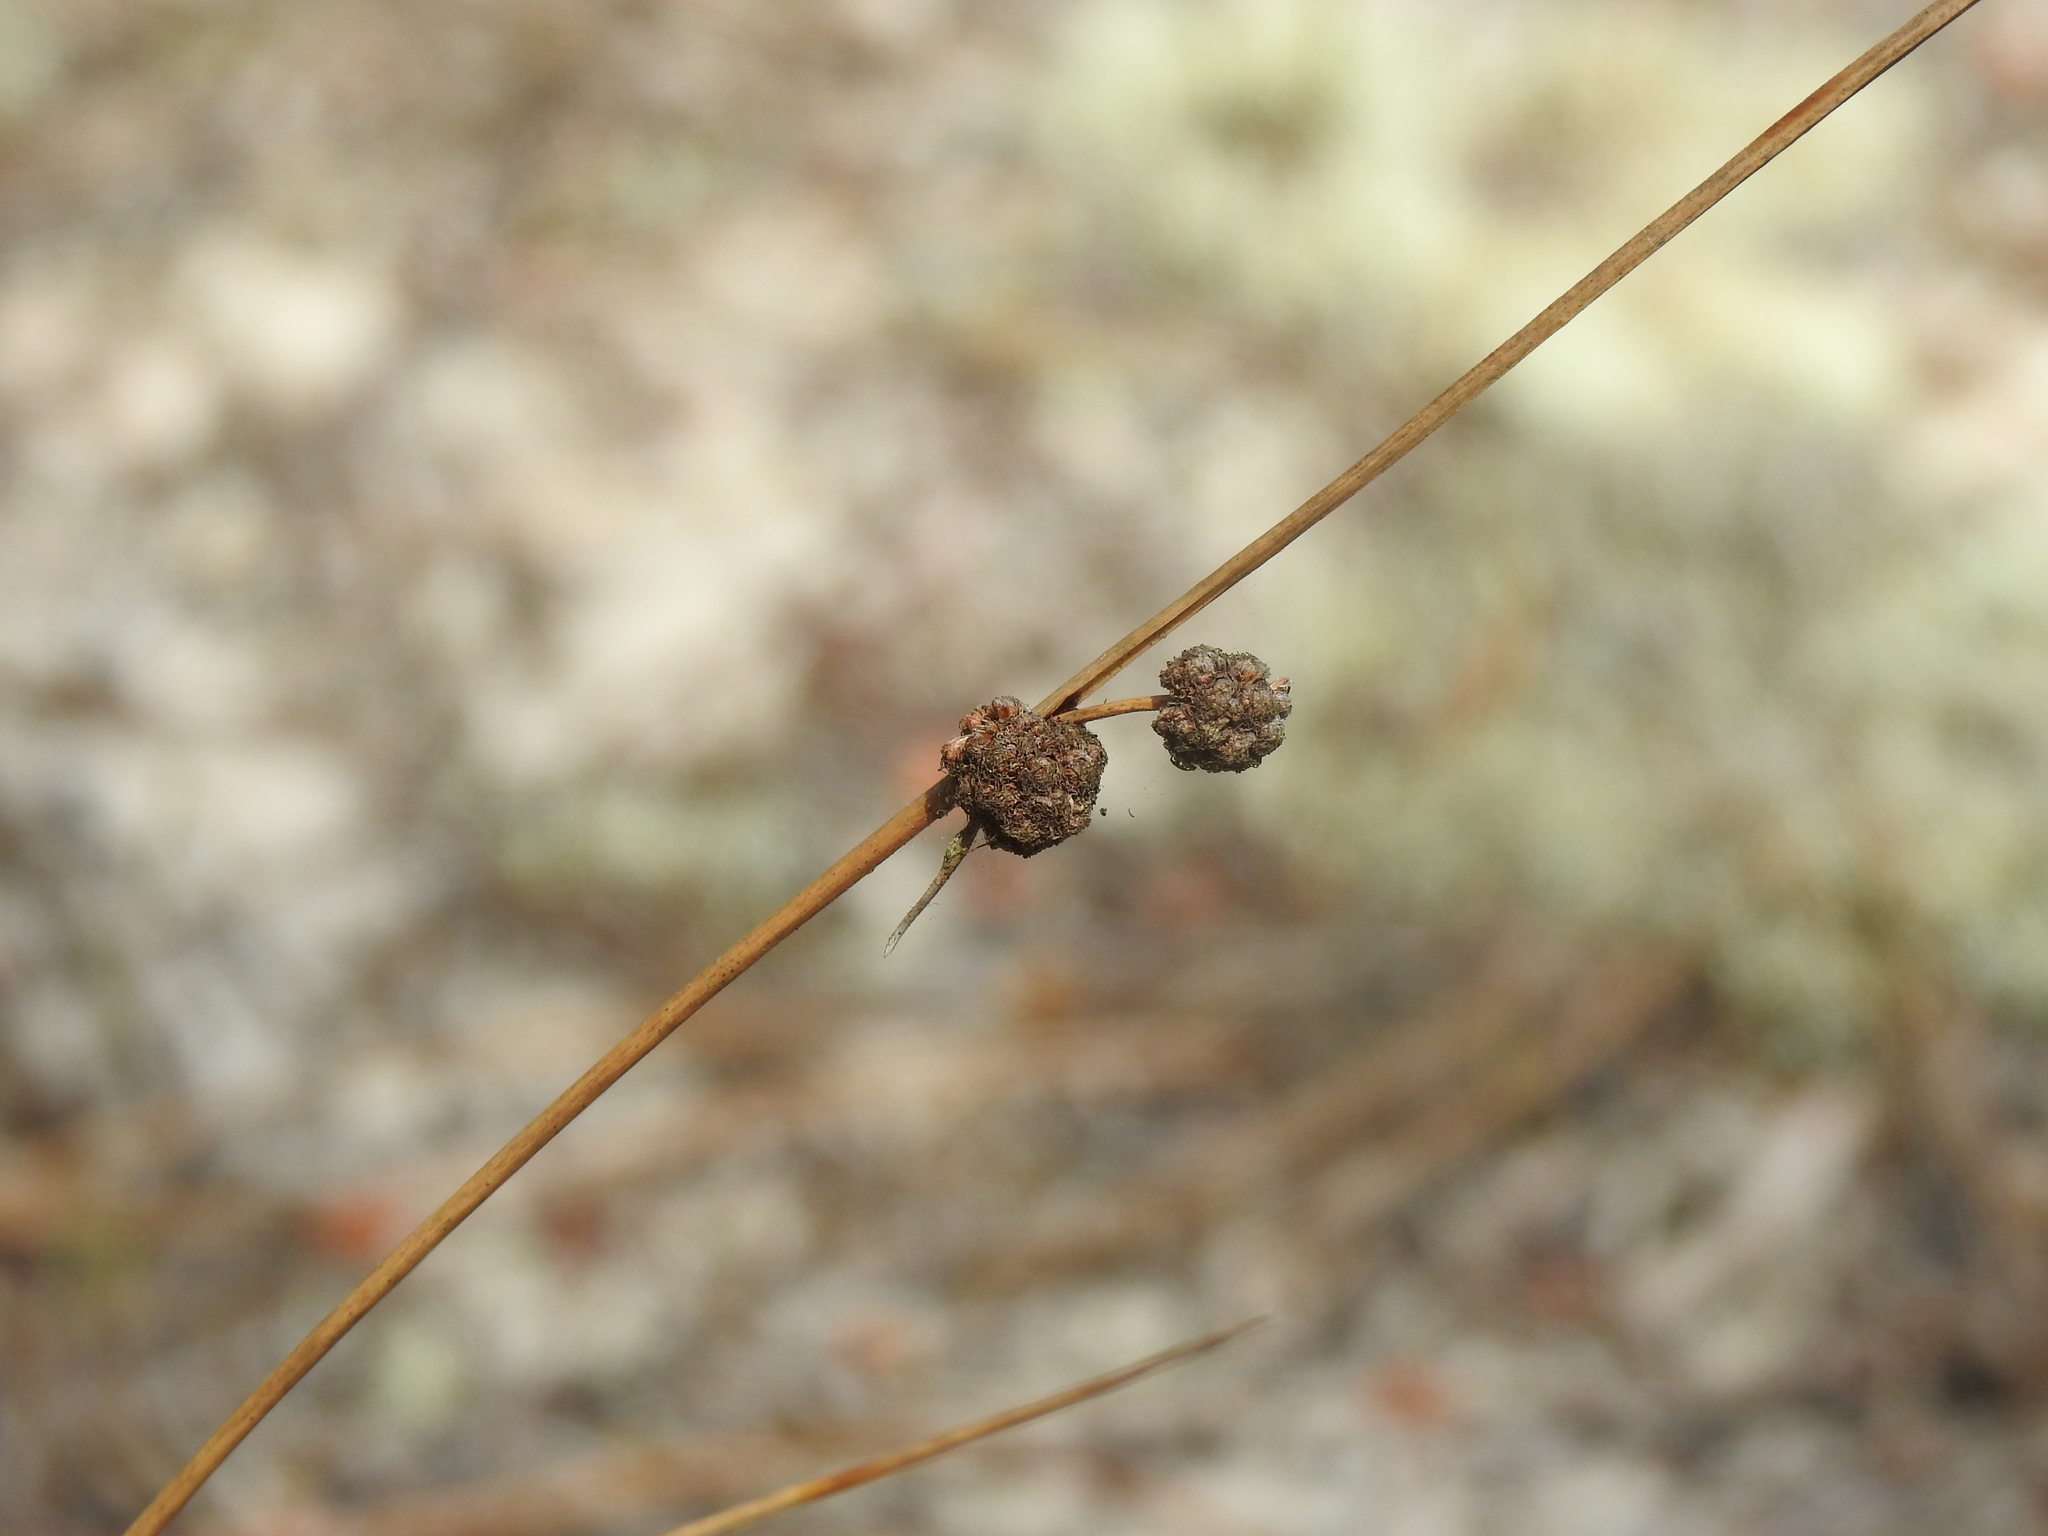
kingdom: Plantae
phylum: Tracheophyta
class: Liliopsida
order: Poales
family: Cyperaceae
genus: Scirpoides
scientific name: Scirpoides holoschoenus
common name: Round-headed club-rush
